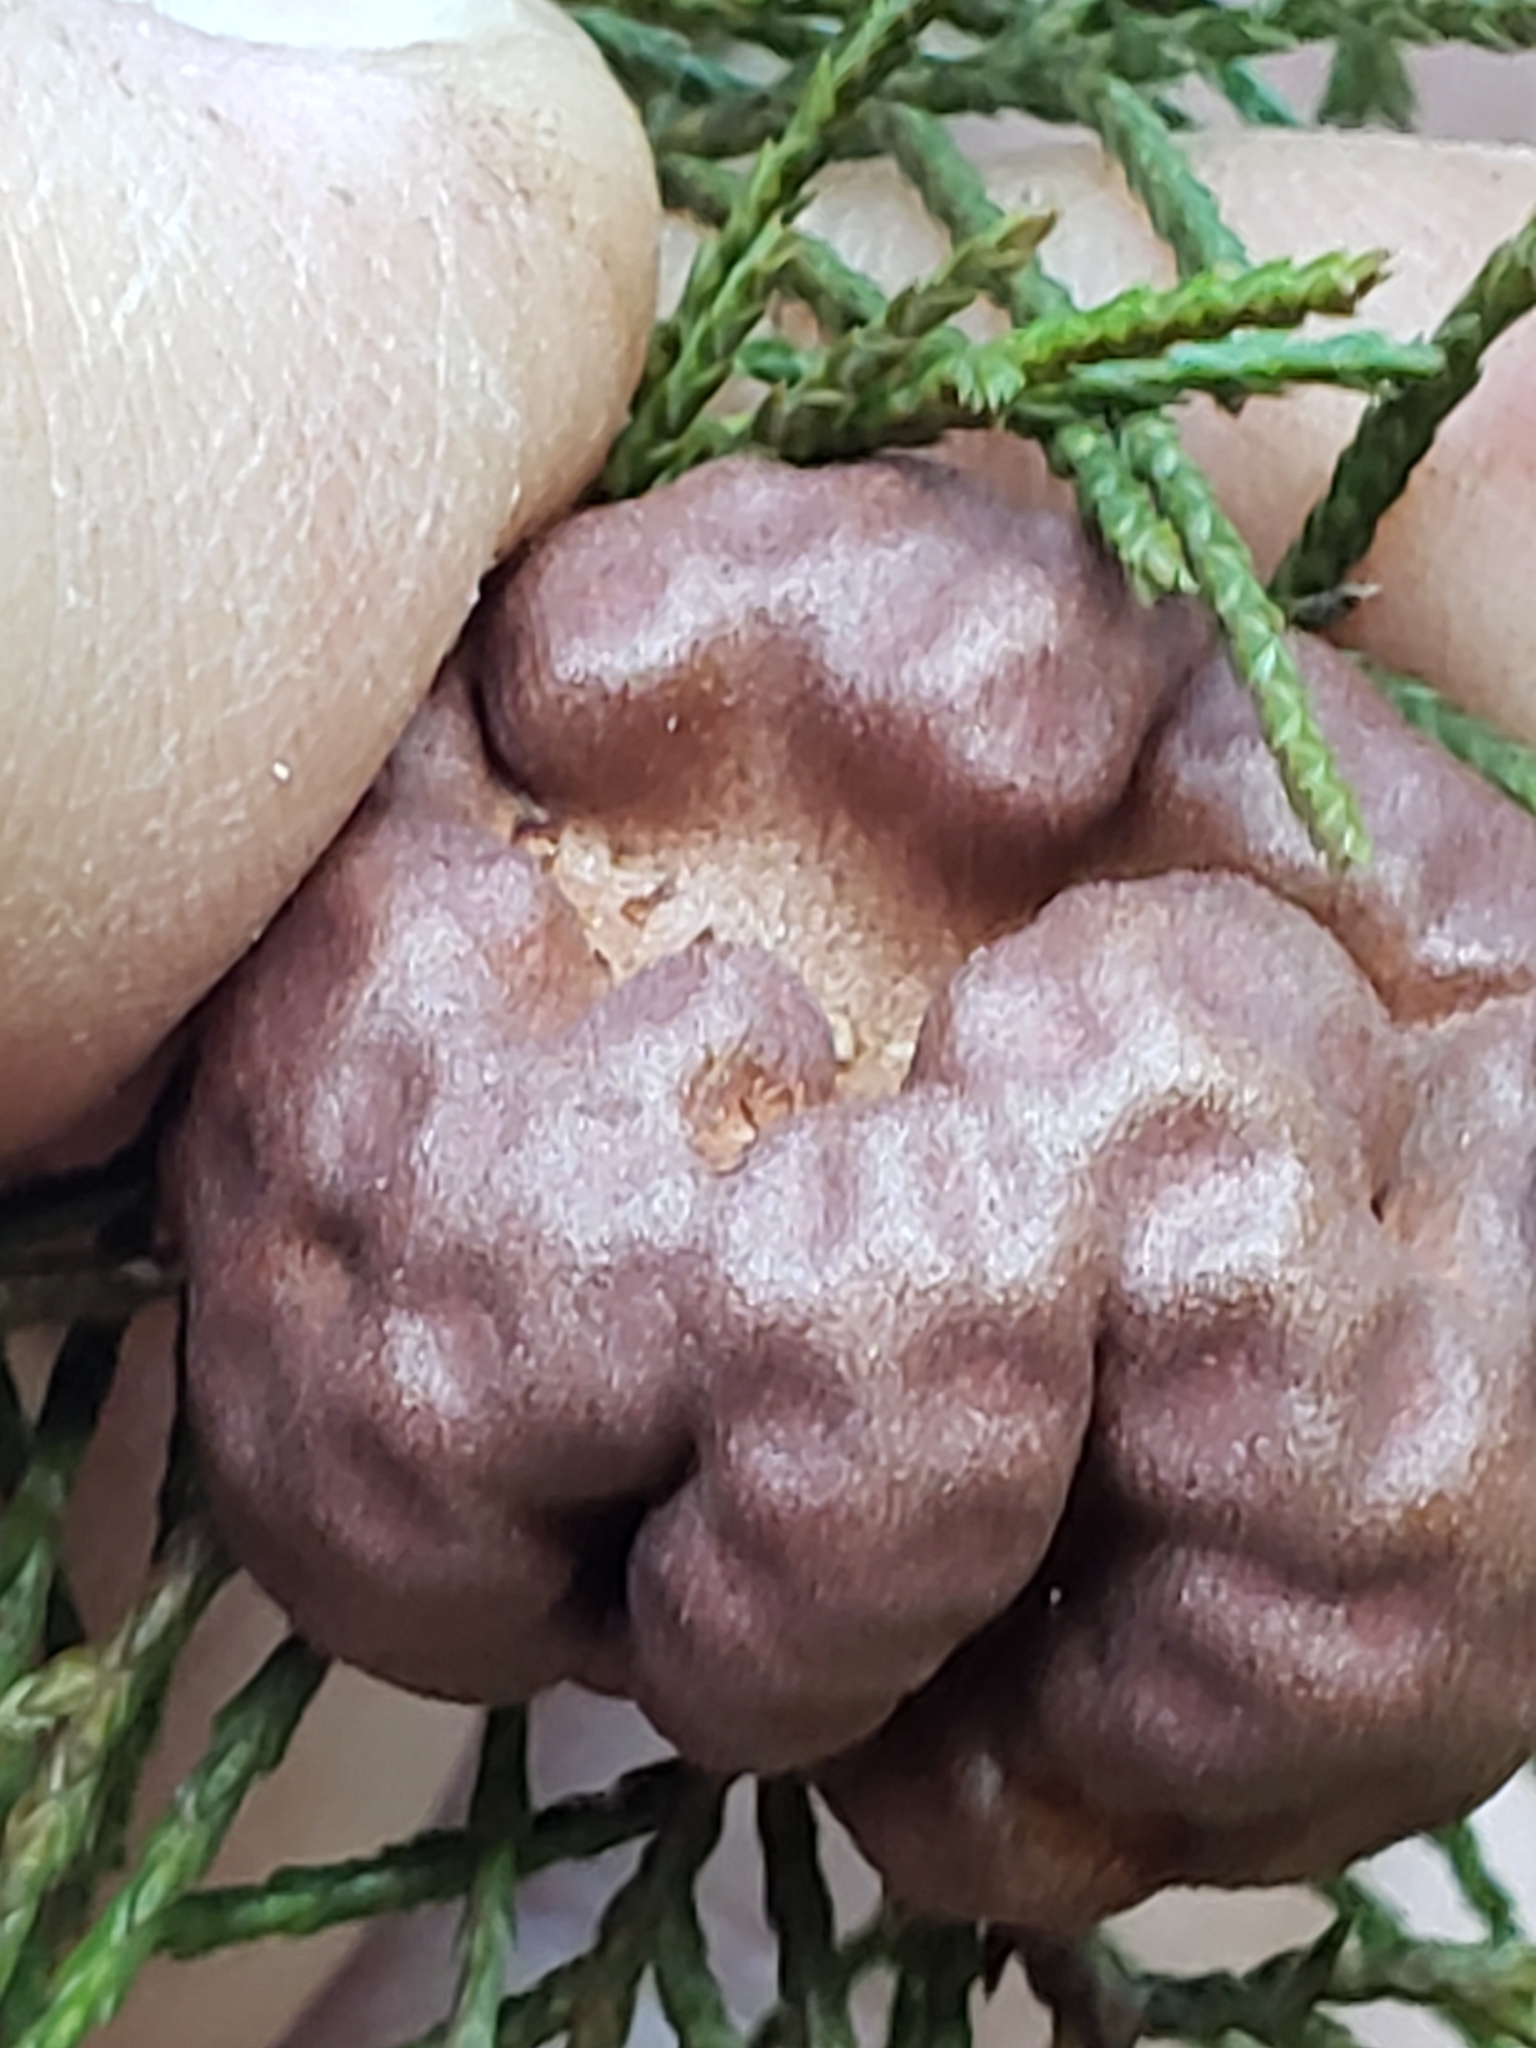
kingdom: Fungi
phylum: Basidiomycota
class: Pucciniomycetes
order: Pucciniales
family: Gymnosporangiaceae
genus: Gymnosporangium
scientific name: Gymnosporangium juniperi-virginianae
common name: Juniper-apple rust
